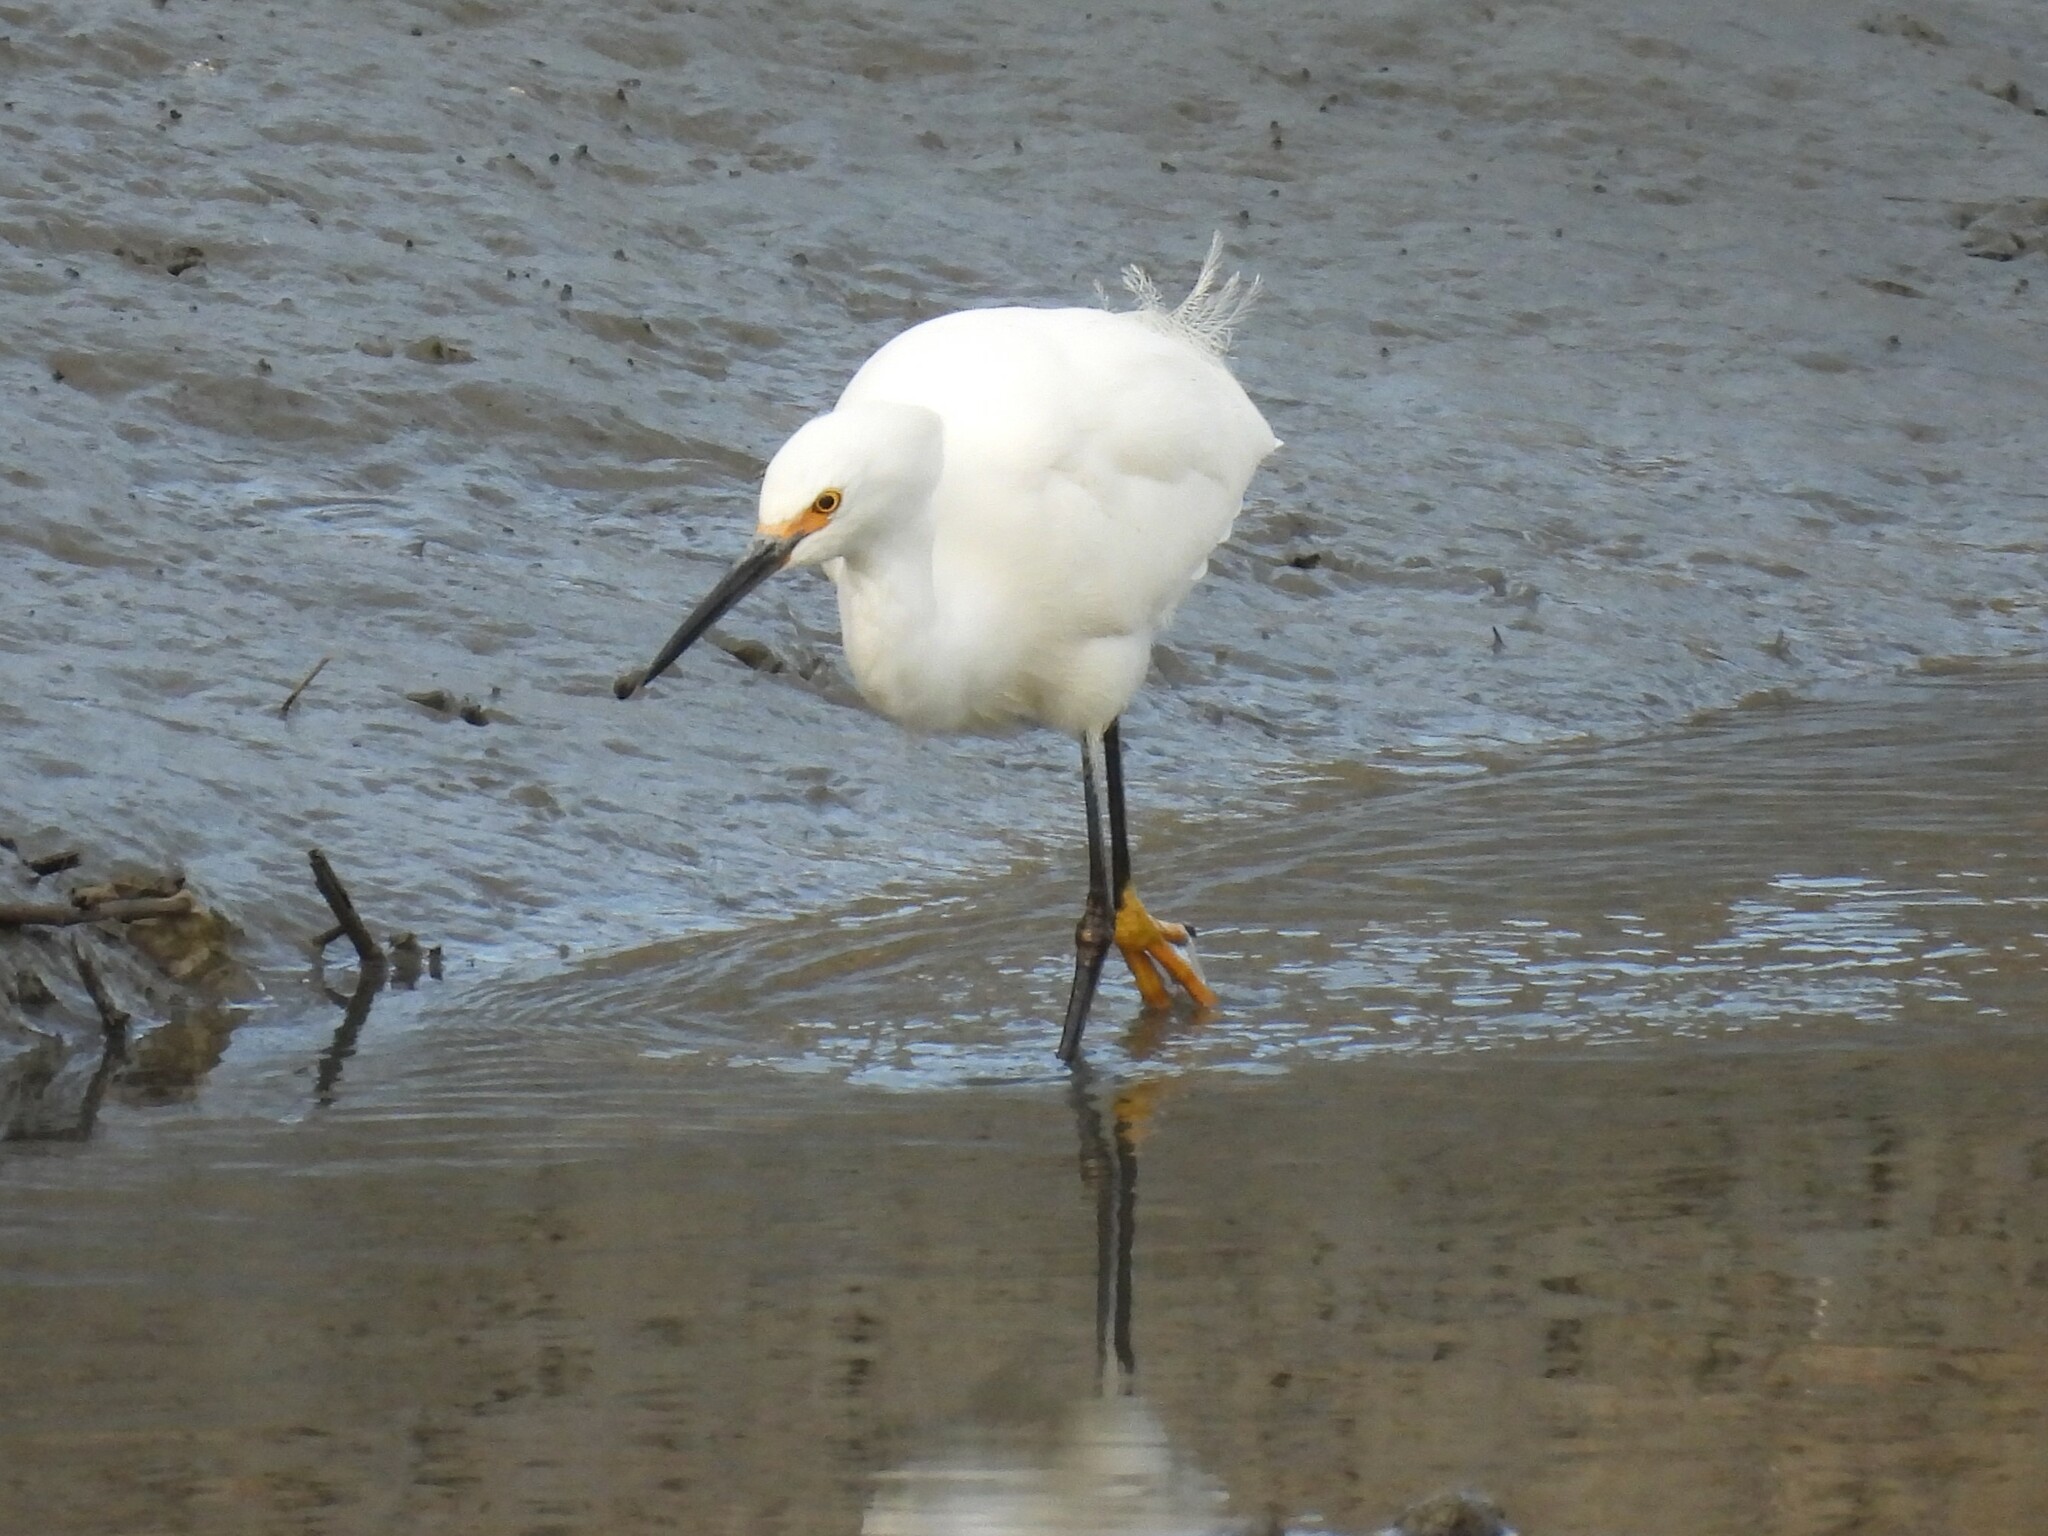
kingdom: Animalia
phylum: Chordata
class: Aves
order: Pelecaniformes
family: Ardeidae
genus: Egretta
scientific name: Egretta thula
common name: Snowy egret
